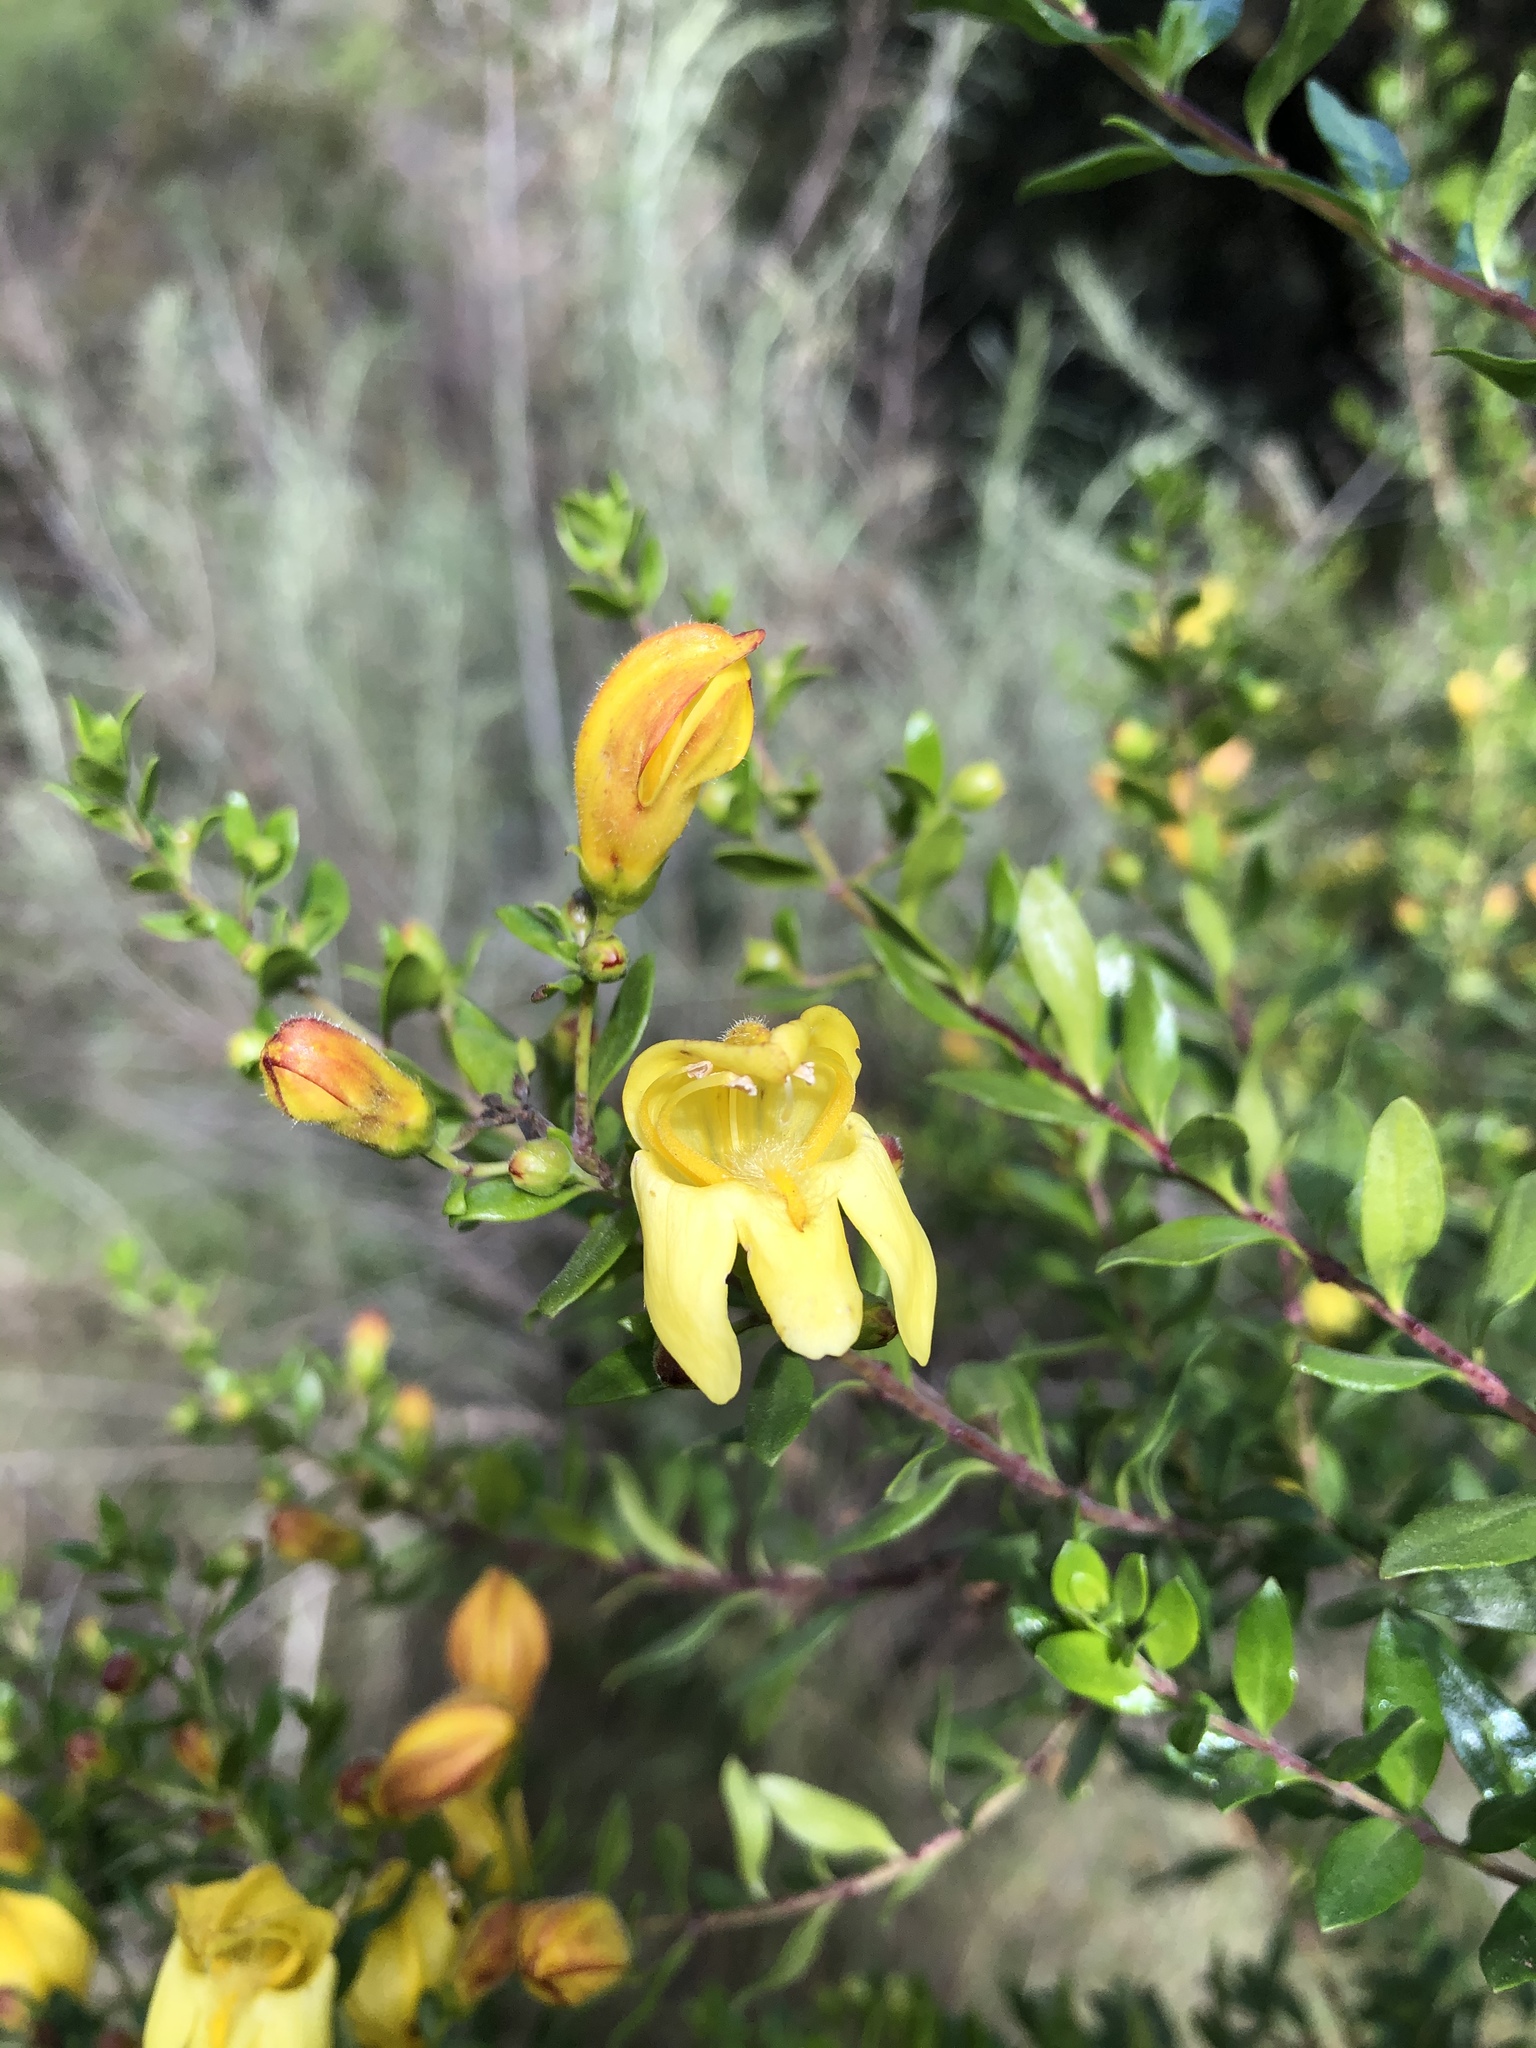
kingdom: Plantae
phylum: Tracheophyta
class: Magnoliopsida
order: Lamiales
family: Plantaginaceae
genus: Keckiella
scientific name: Keckiella antirrhinoides
